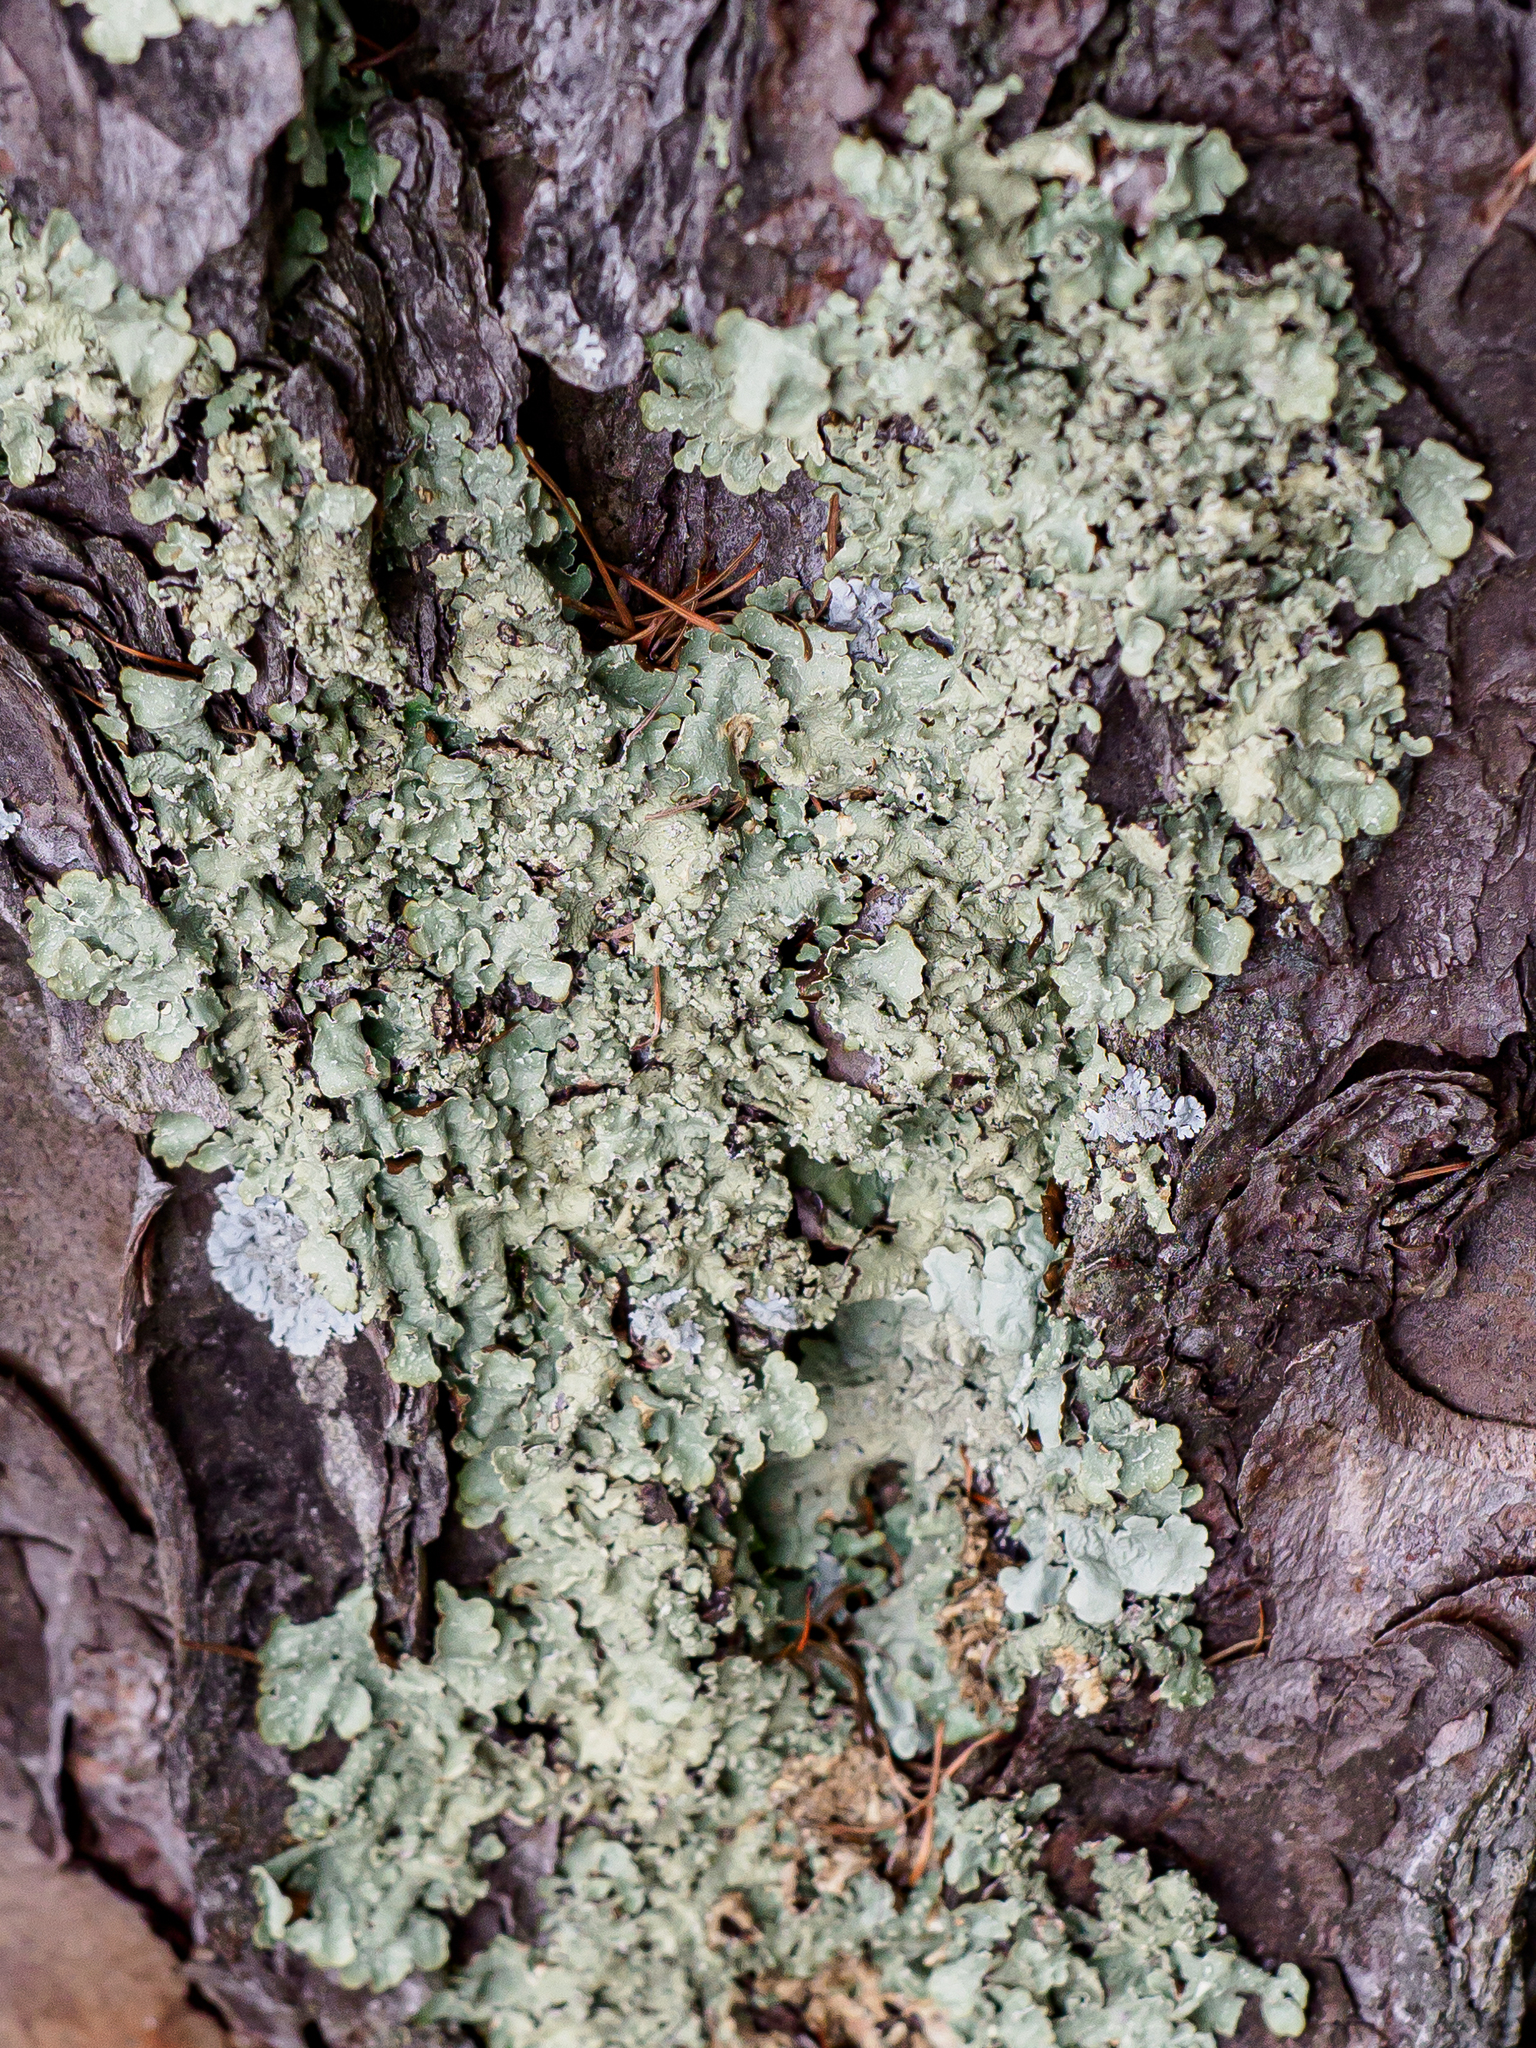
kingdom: Fungi
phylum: Ascomycota
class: Lecanoromycetes
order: Lecanorales
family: Parmeliaceae
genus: Flavopunctelia
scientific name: Flavopunctelia flaventior
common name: Speckled greenshield
